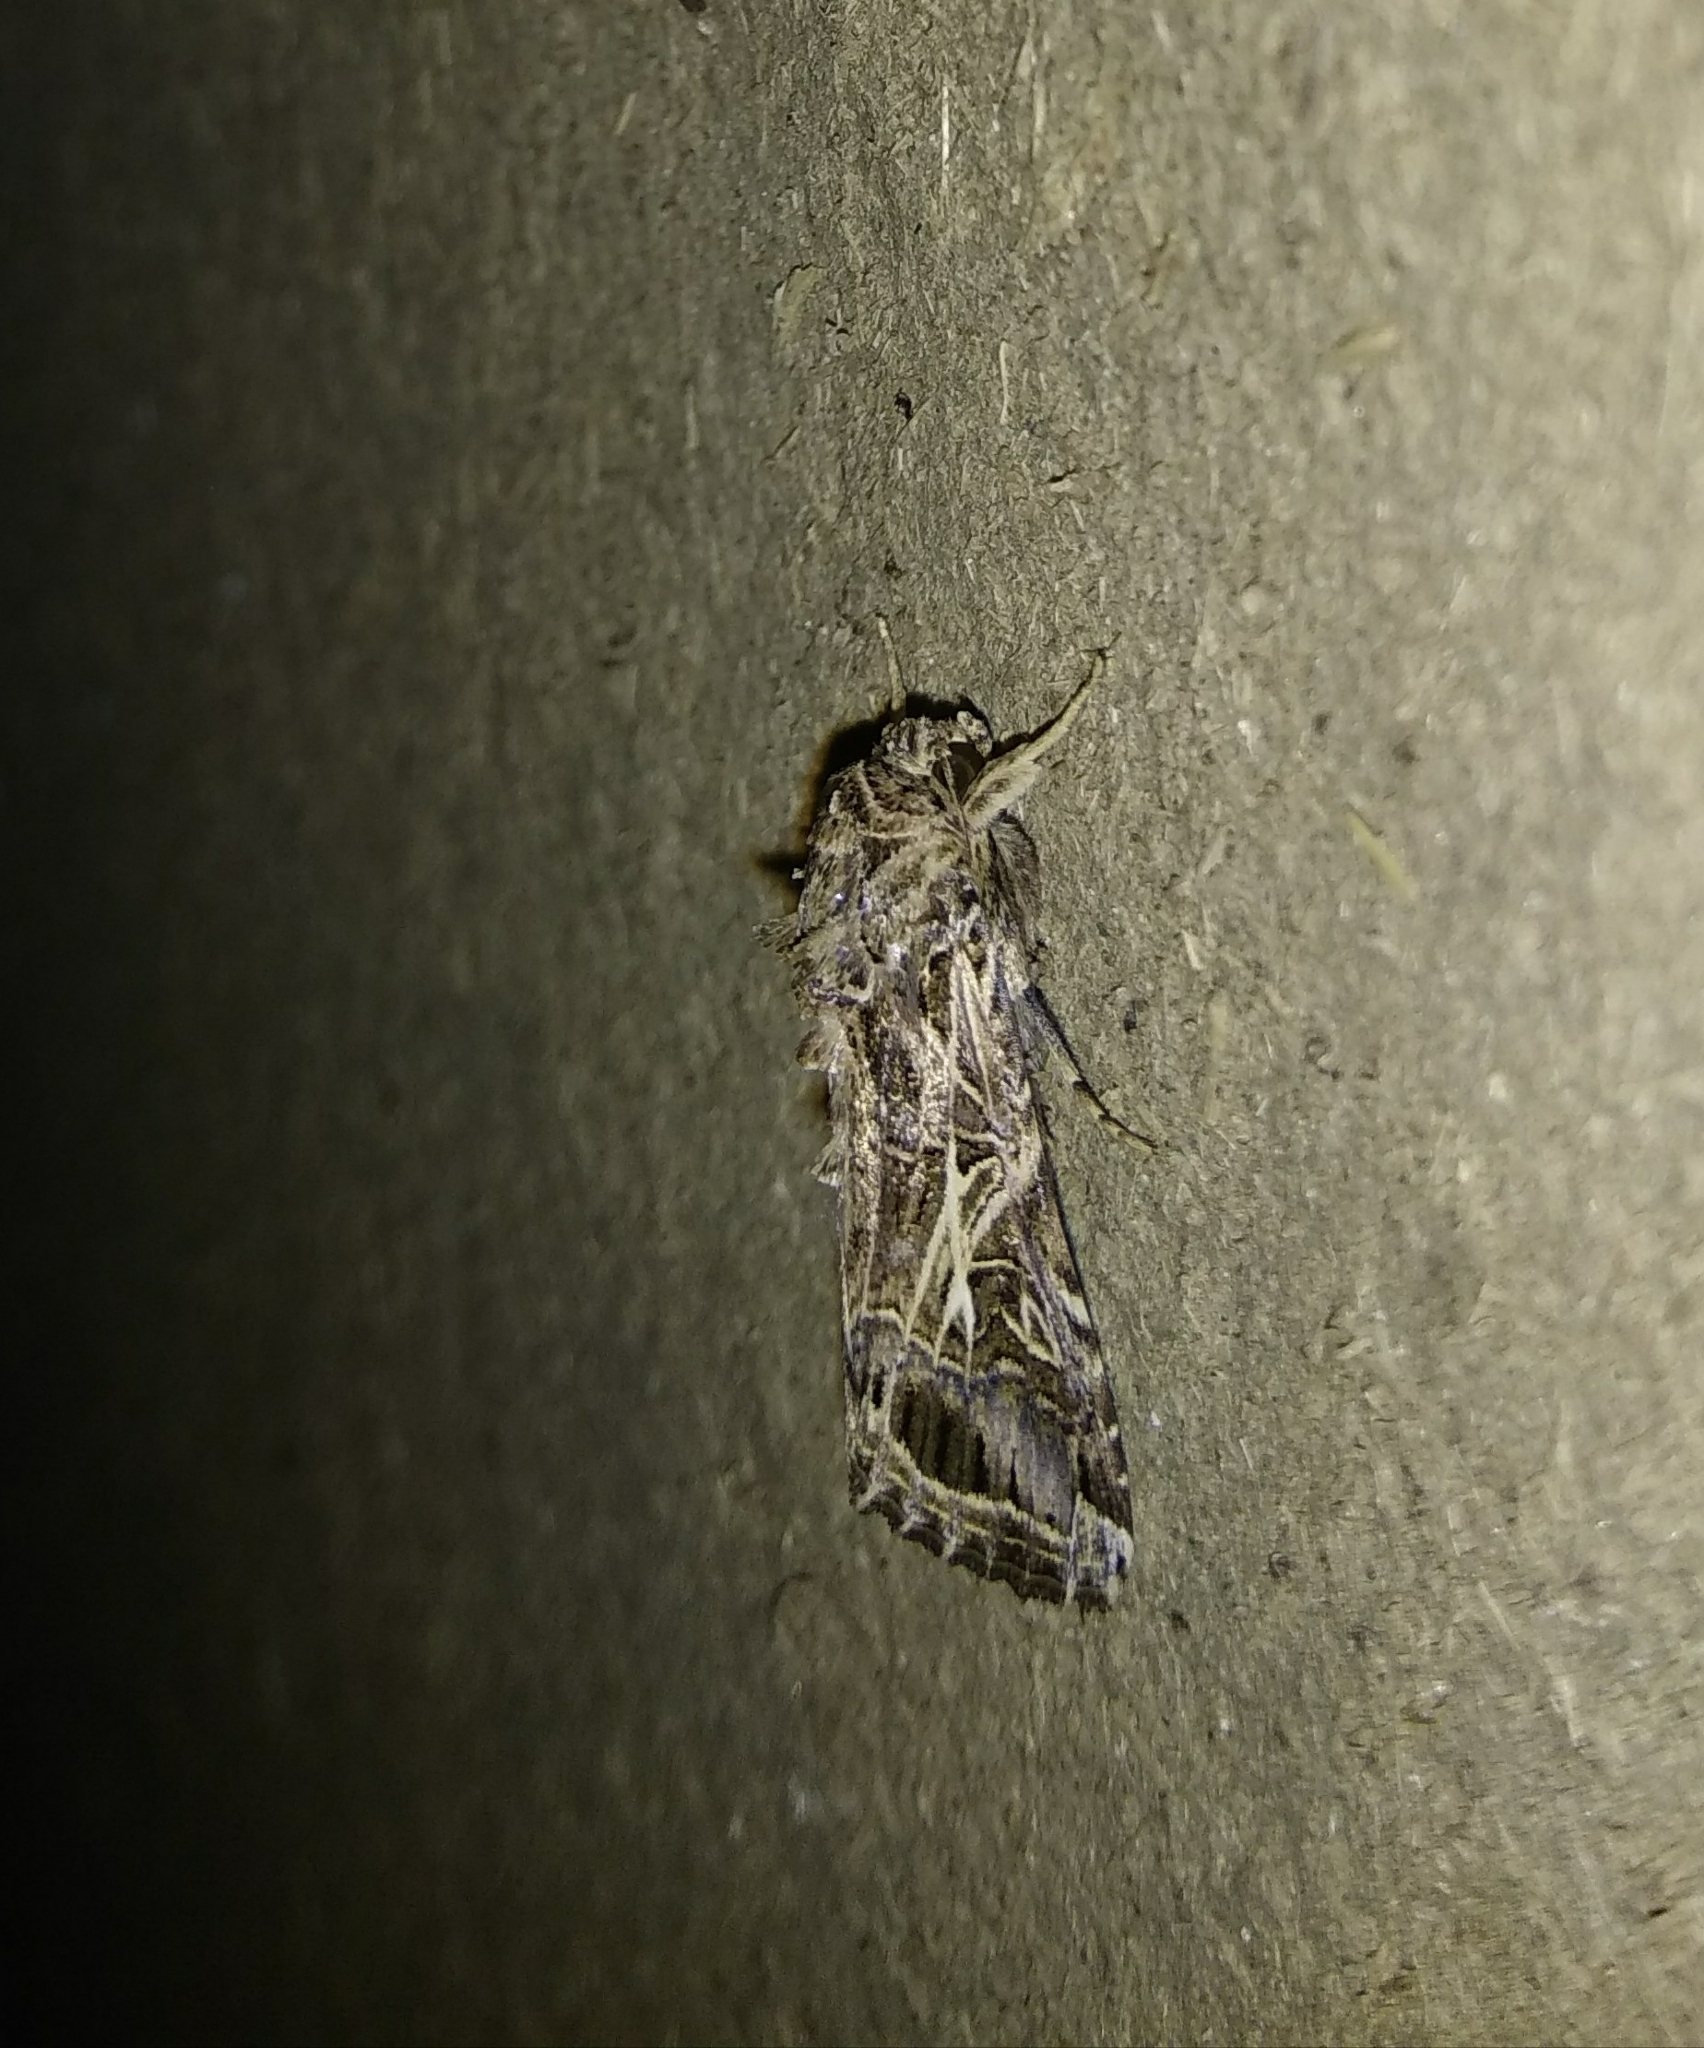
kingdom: Animalia
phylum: Arthropoda
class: Insecta
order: Lepidoptera
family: Noctuidae
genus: Spodoptera
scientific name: Spodoptera litura
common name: Asian cotton leafworm
